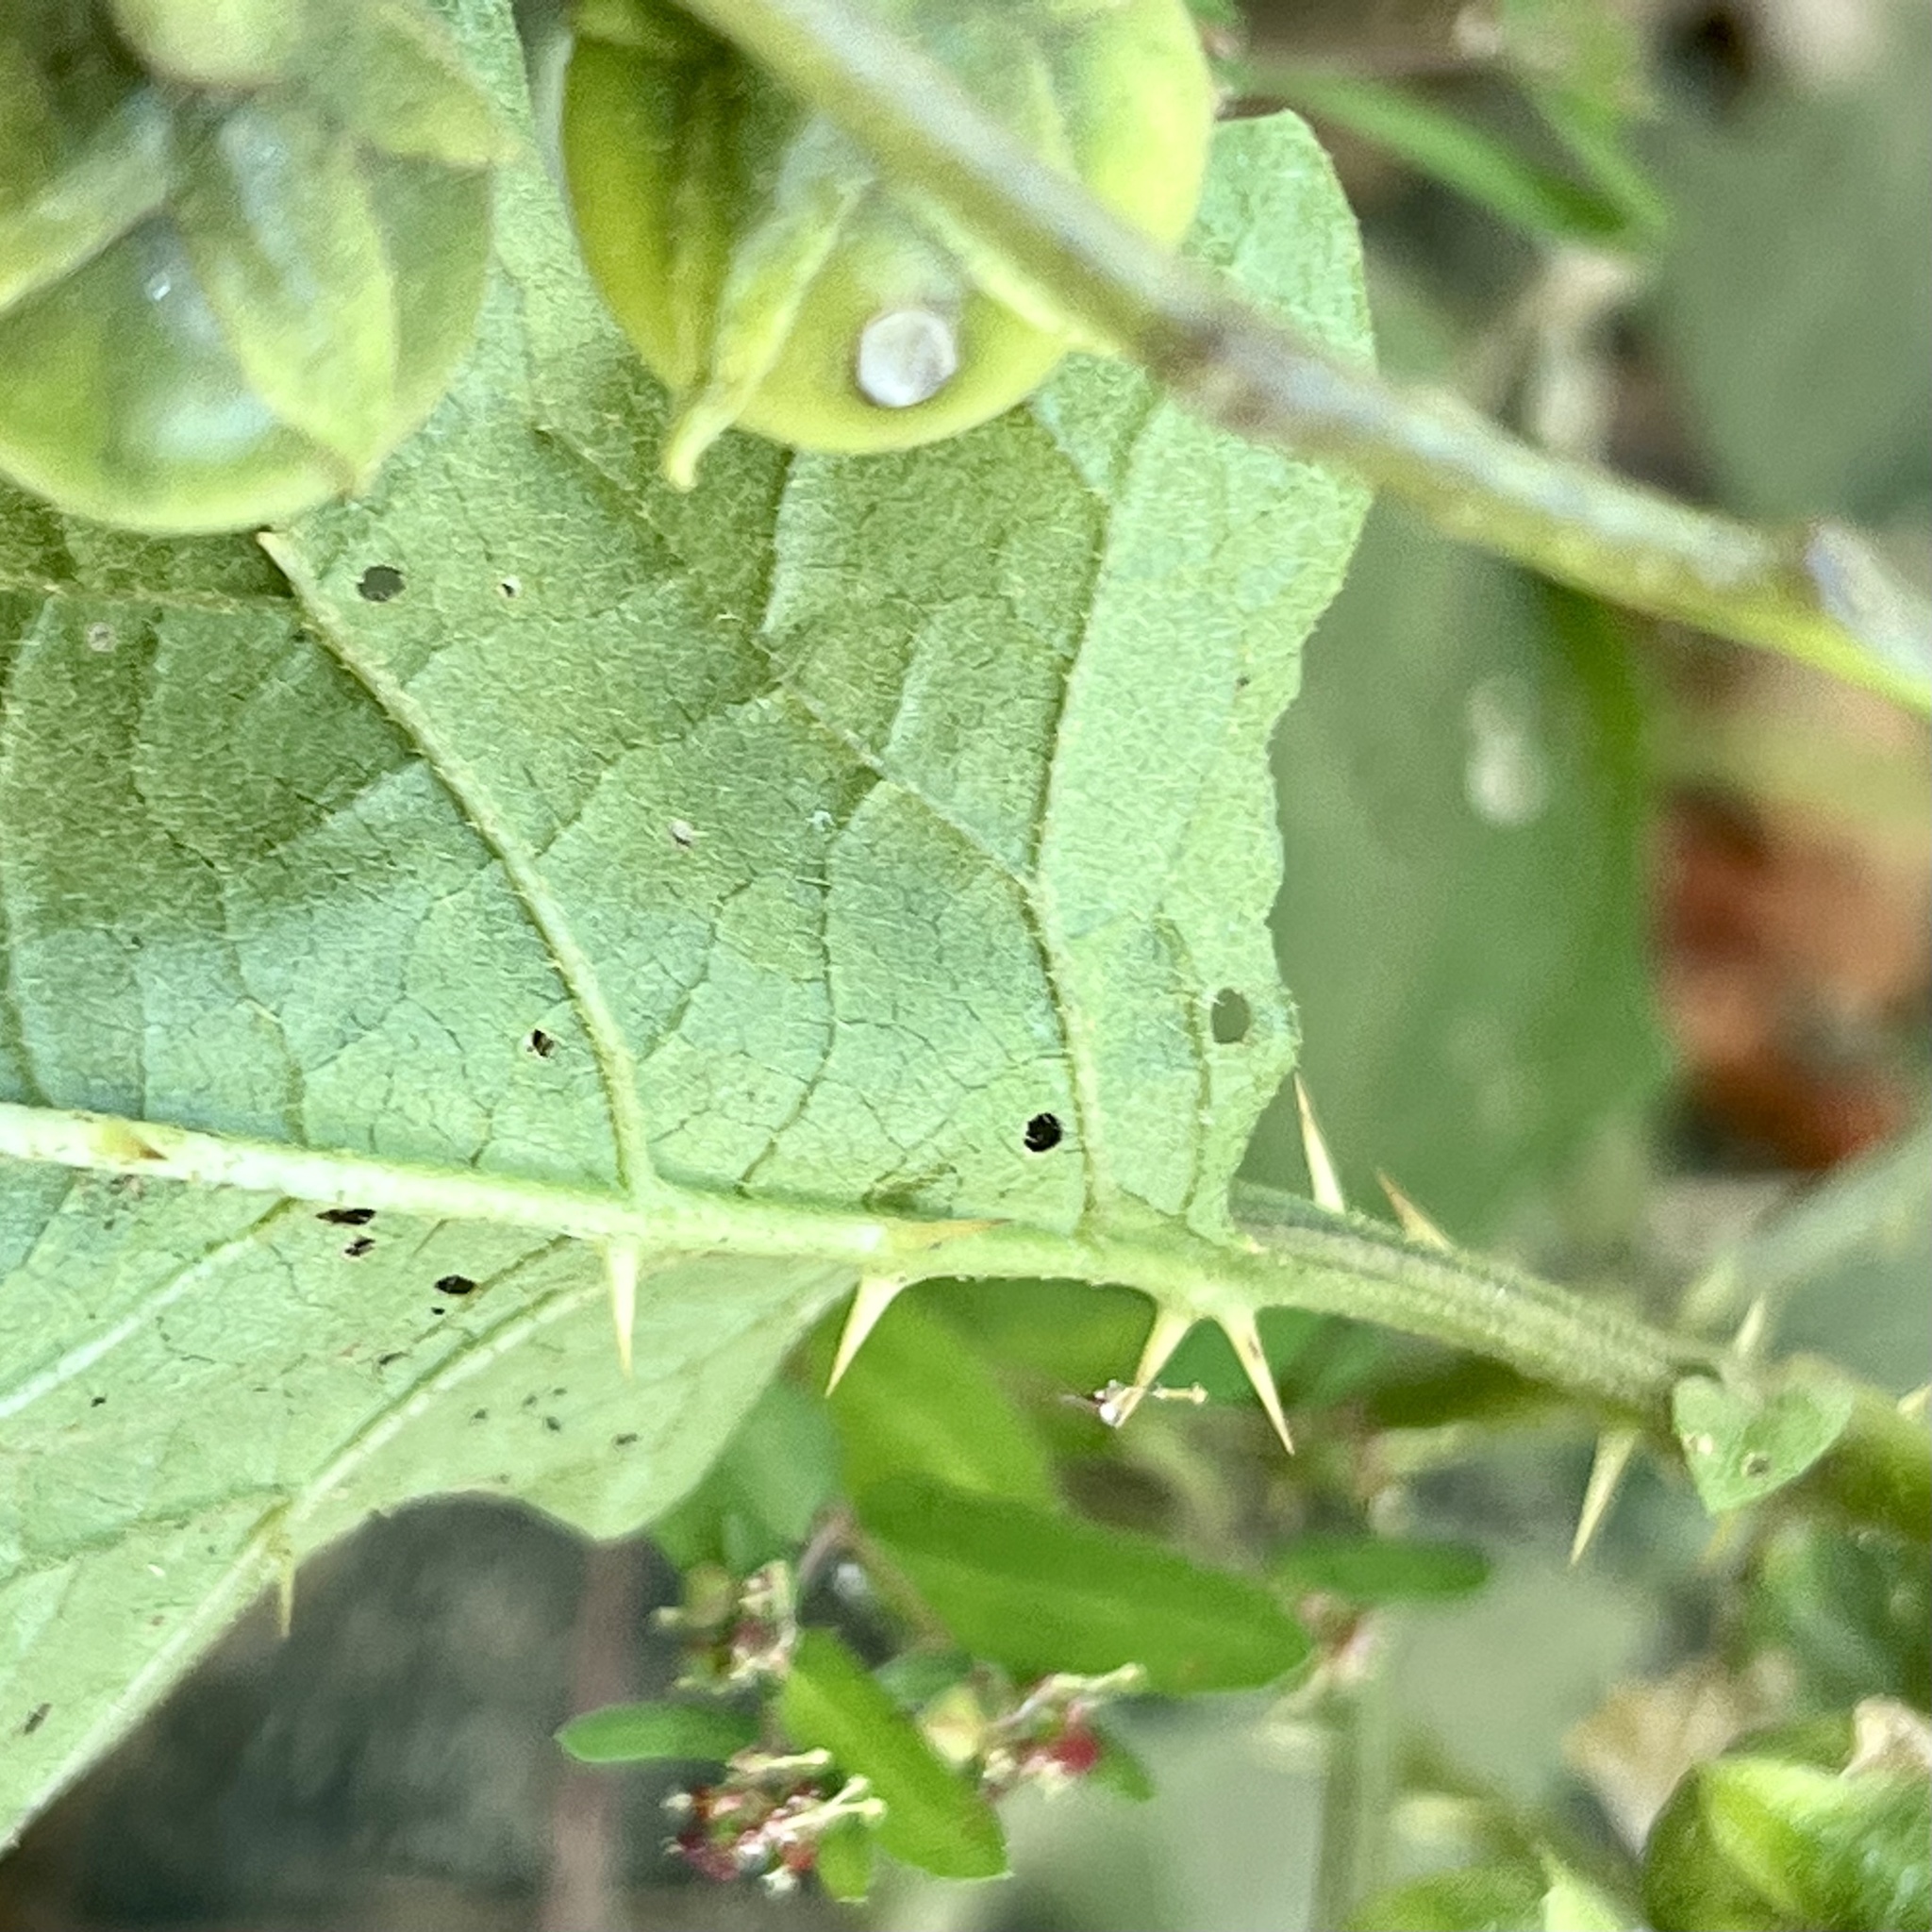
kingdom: Plantae
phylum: Tracheophyta
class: Magnoliopsida
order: Solanales
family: Solanaceae
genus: Solanum
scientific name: Solanum carolinense
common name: Horse-nettle
